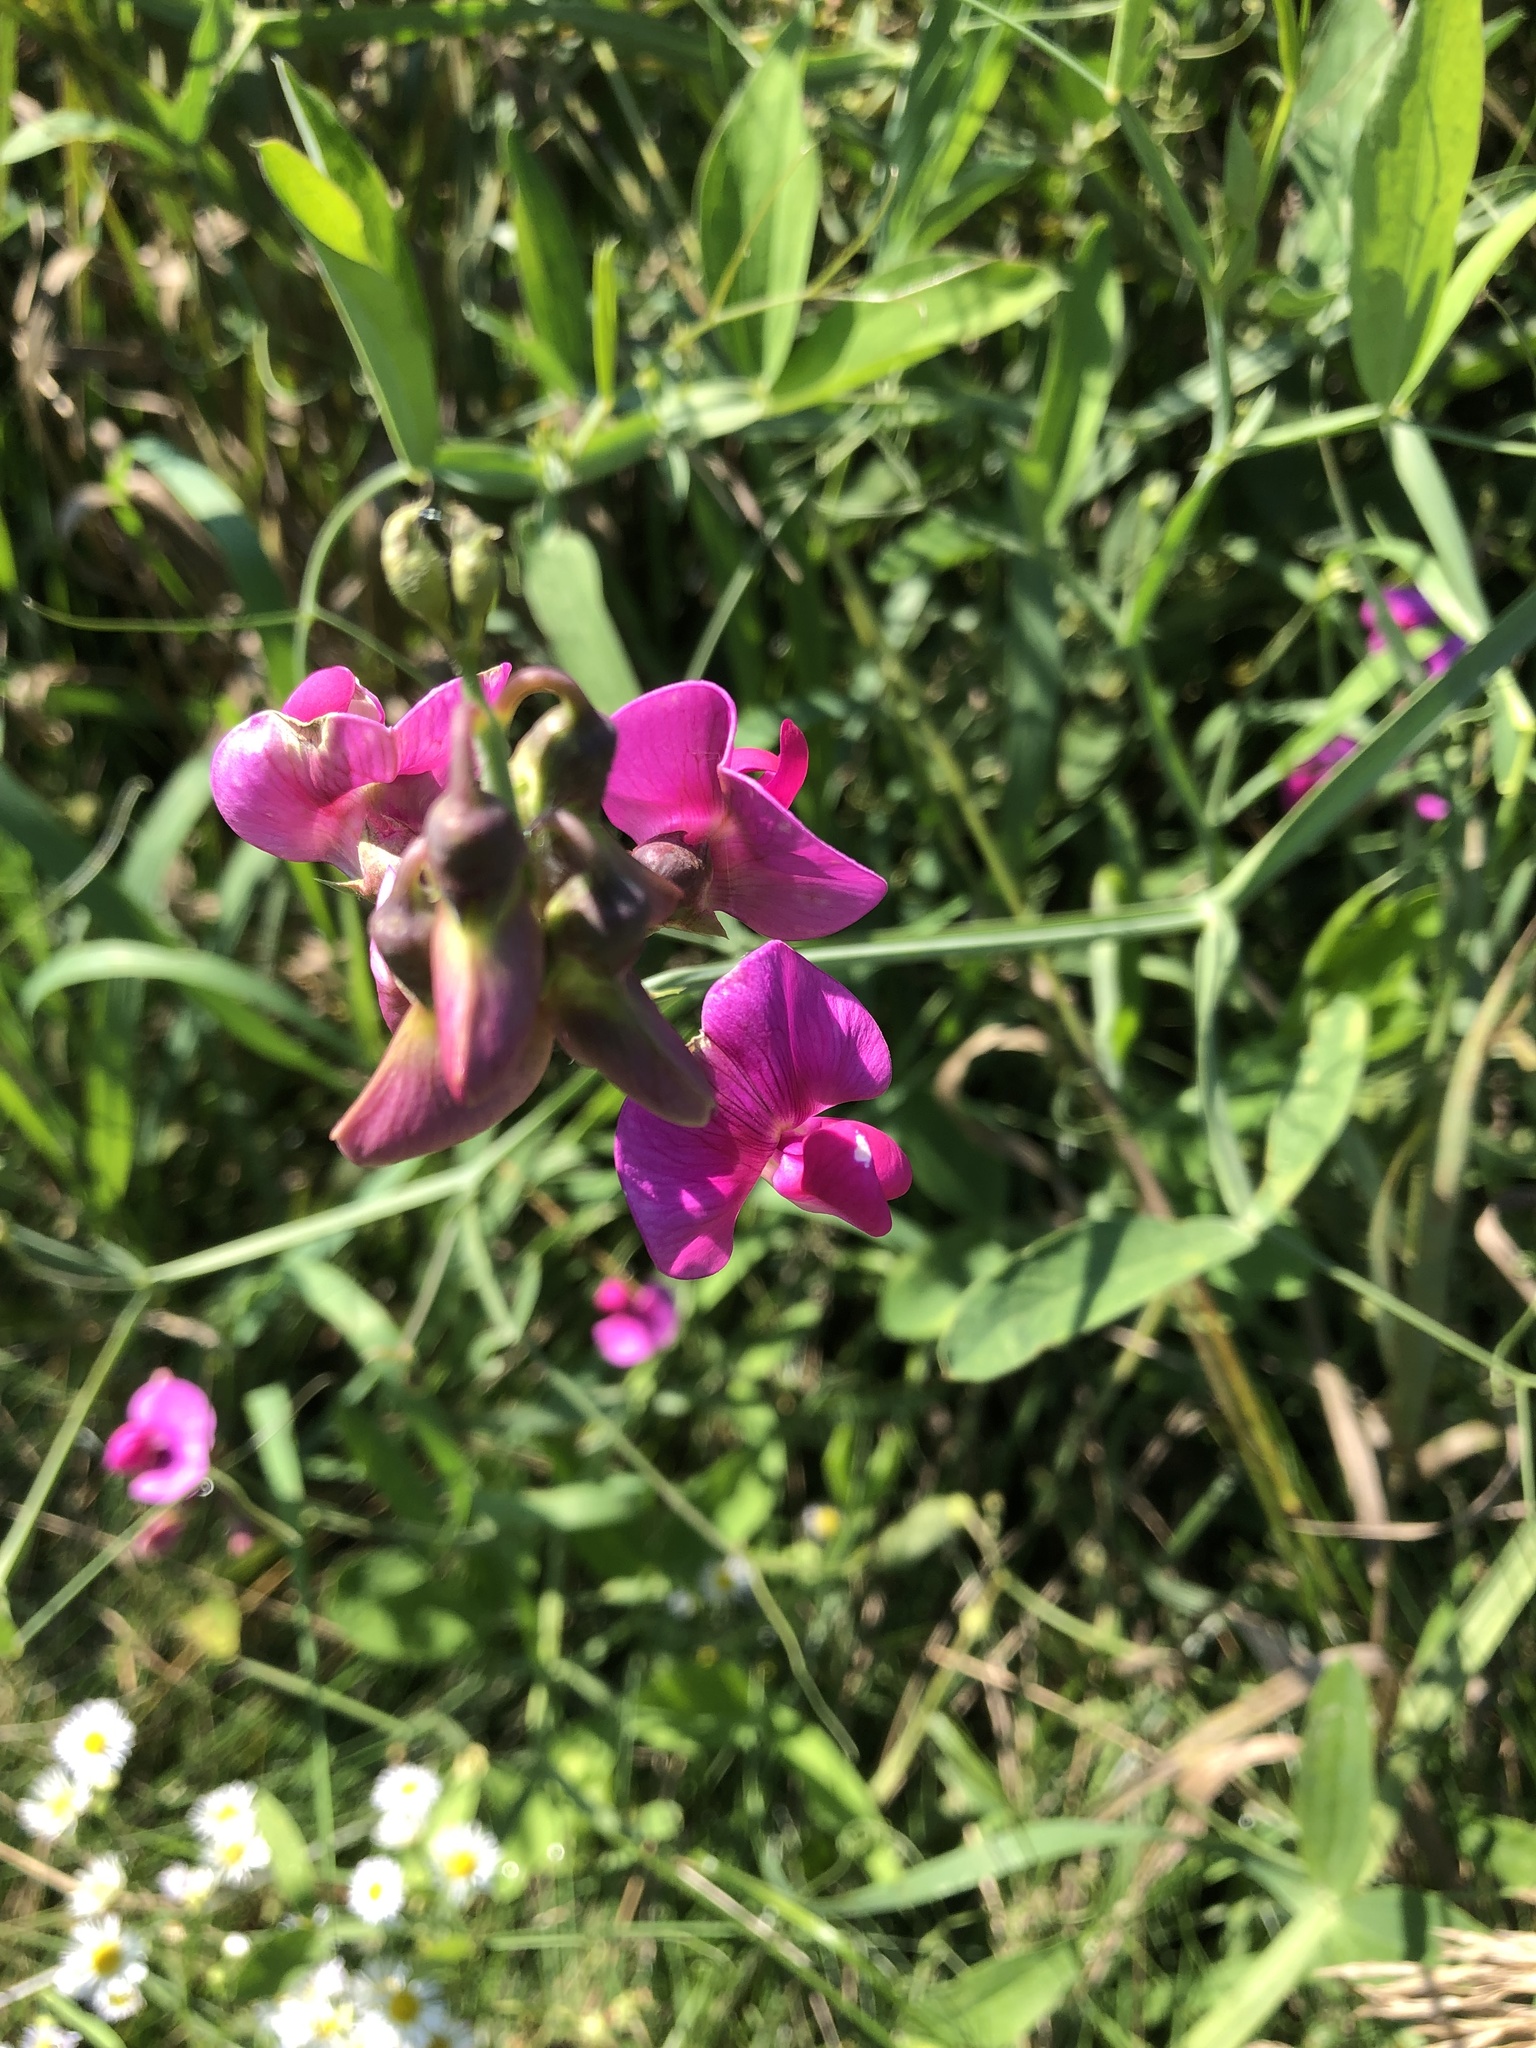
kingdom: Plantae
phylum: Tracheophyta
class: Magnoliopsida
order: Fabales
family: Fabaceae
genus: Lathyrus
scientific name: Lathyrus latifolius
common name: Perennial pea
